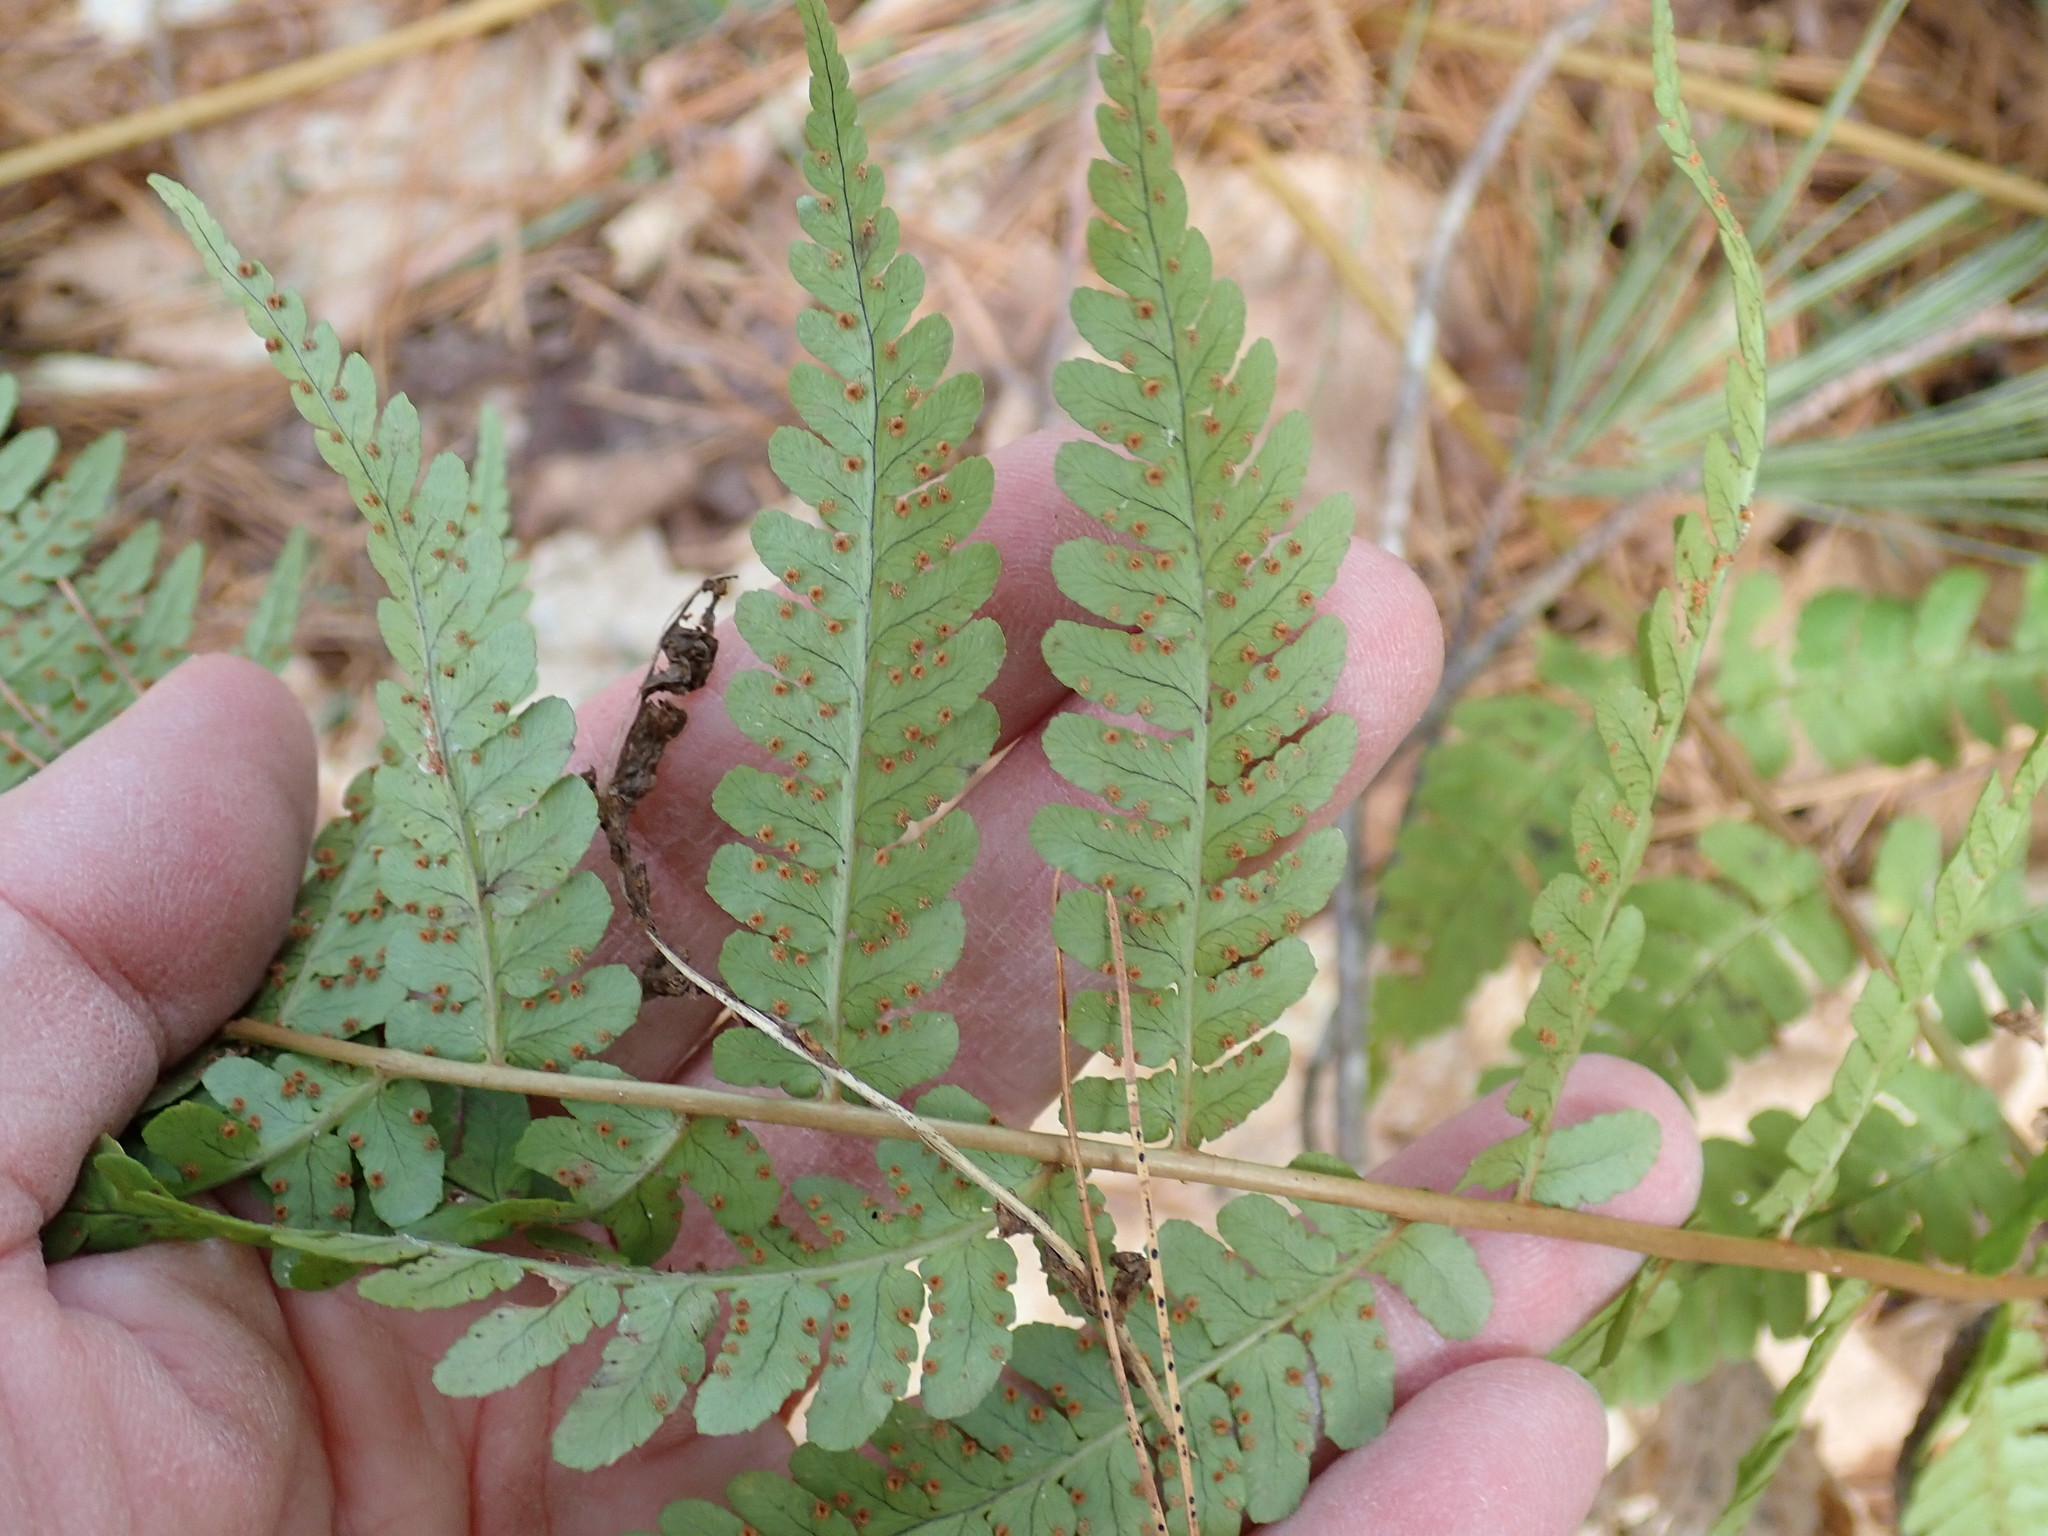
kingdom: Plantae
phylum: Tracheophyta
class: Polypodiopsida
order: Polypodiales
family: Dryopteridaceae
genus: Dryopteris
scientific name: Dryopteris marginalis
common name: Marginal wood fern
